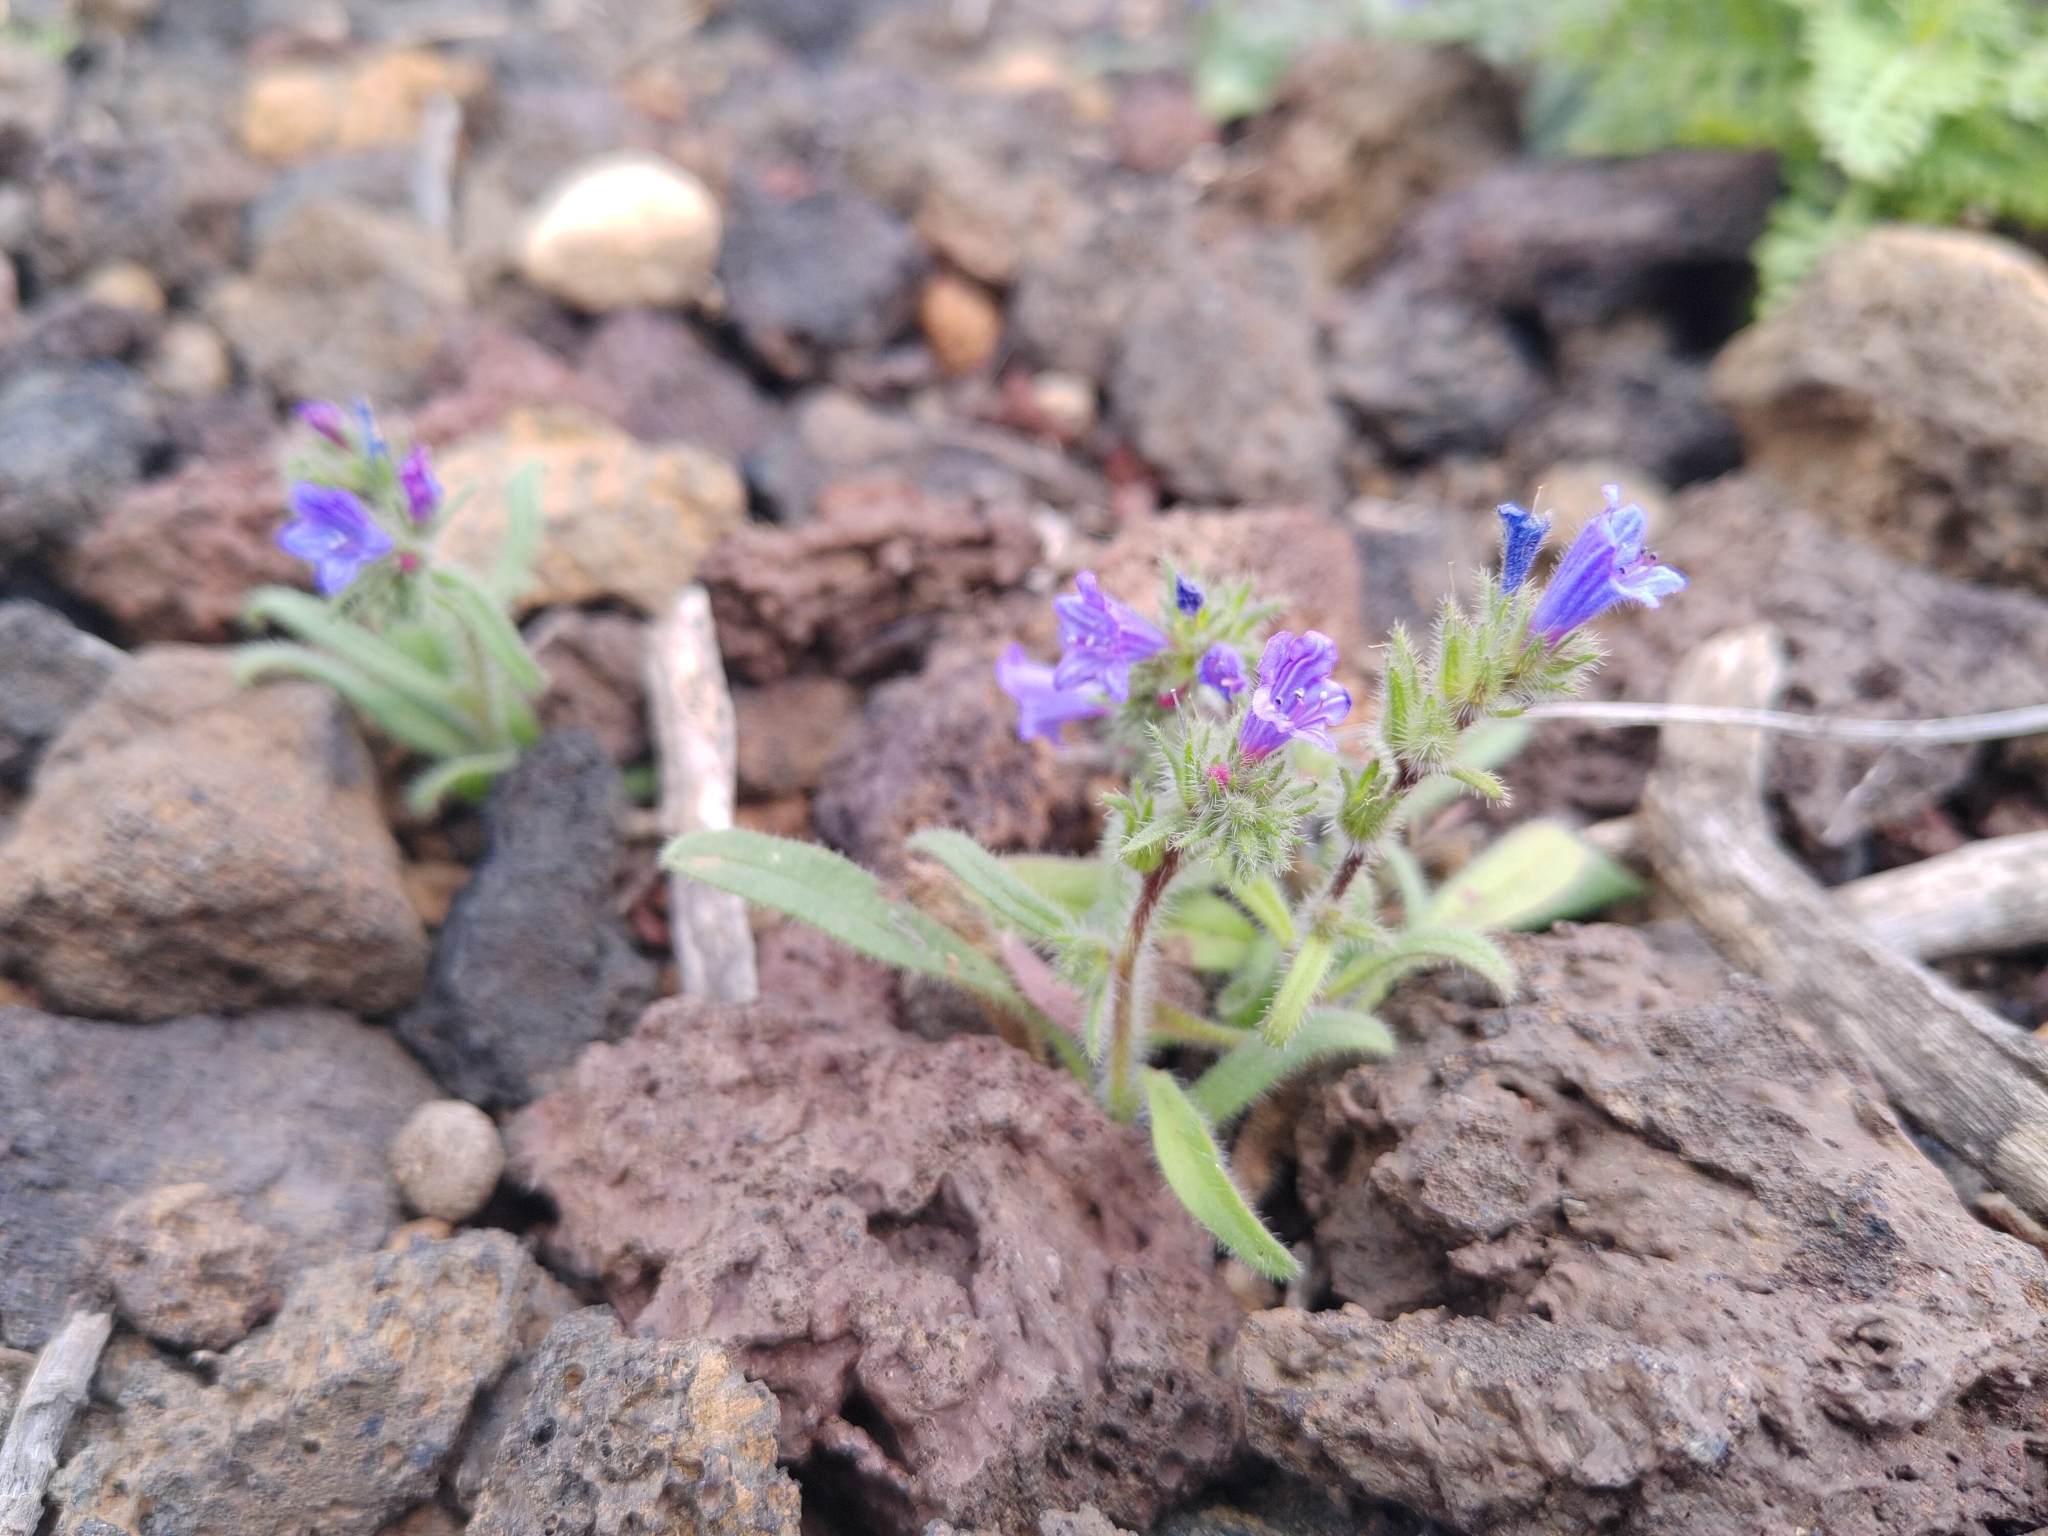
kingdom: Plantae
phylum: Tracheophyta
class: Magnoliopsida
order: Boraginales
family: Boraginaceae
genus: Echium
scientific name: Echium bonnetii
